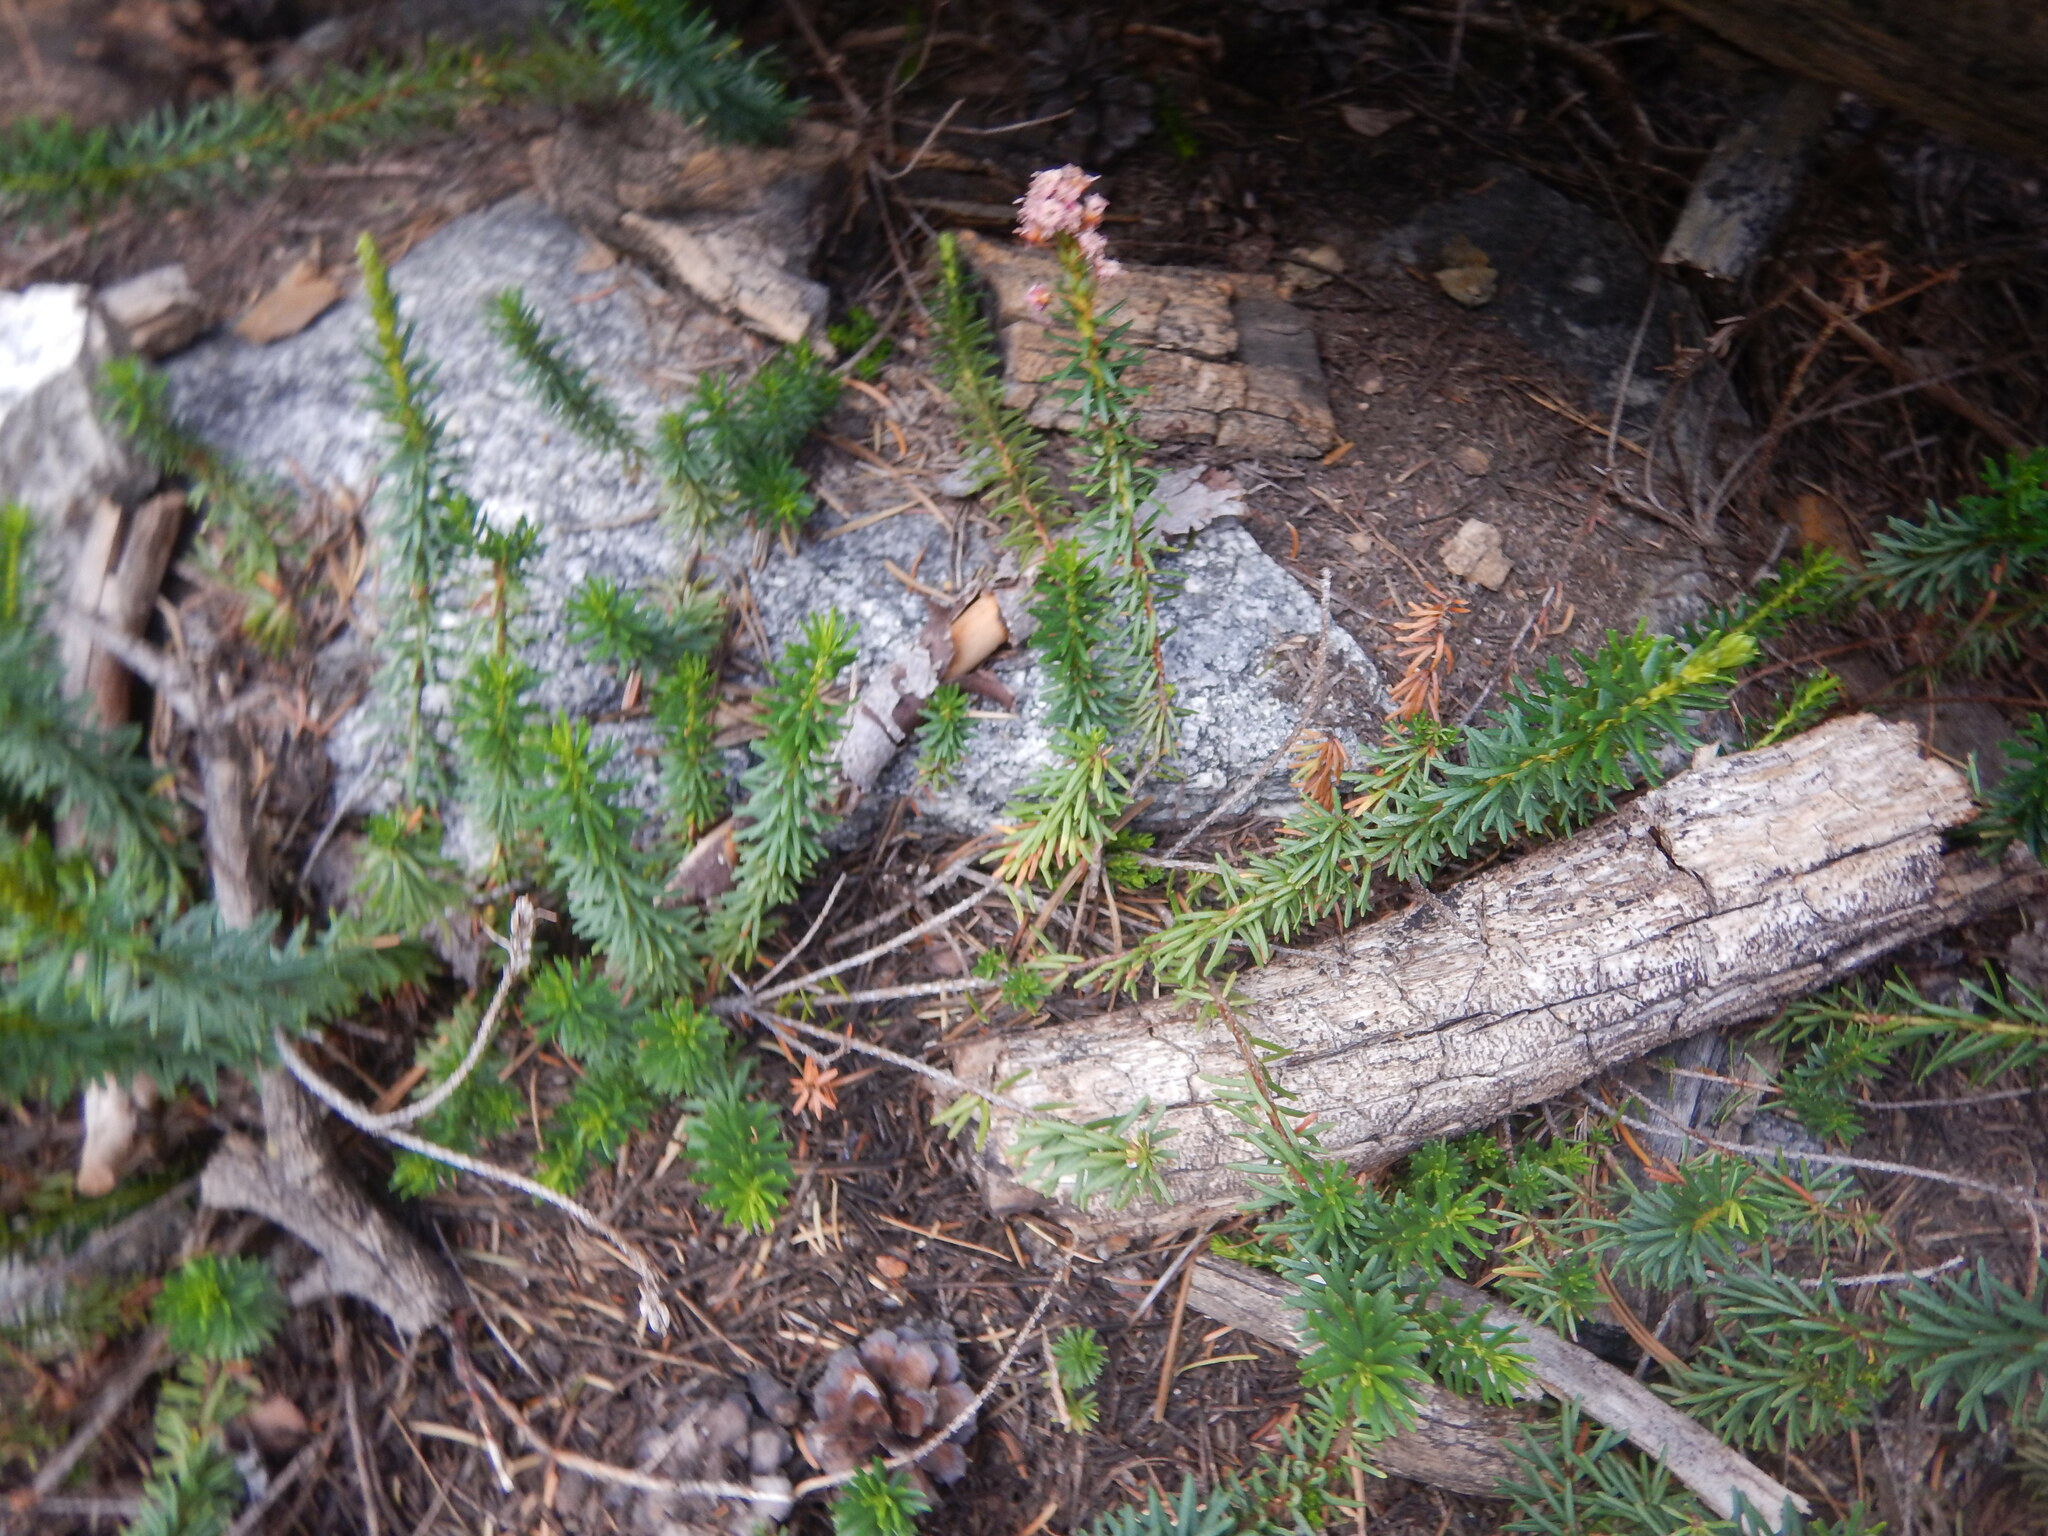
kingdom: Plantae
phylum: Tracheophyta
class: Magnoliopsida
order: Ericales
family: Ericaceae
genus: Phyllodoce
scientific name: Phyllodoce breweri
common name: Brewer's mountain-heather
